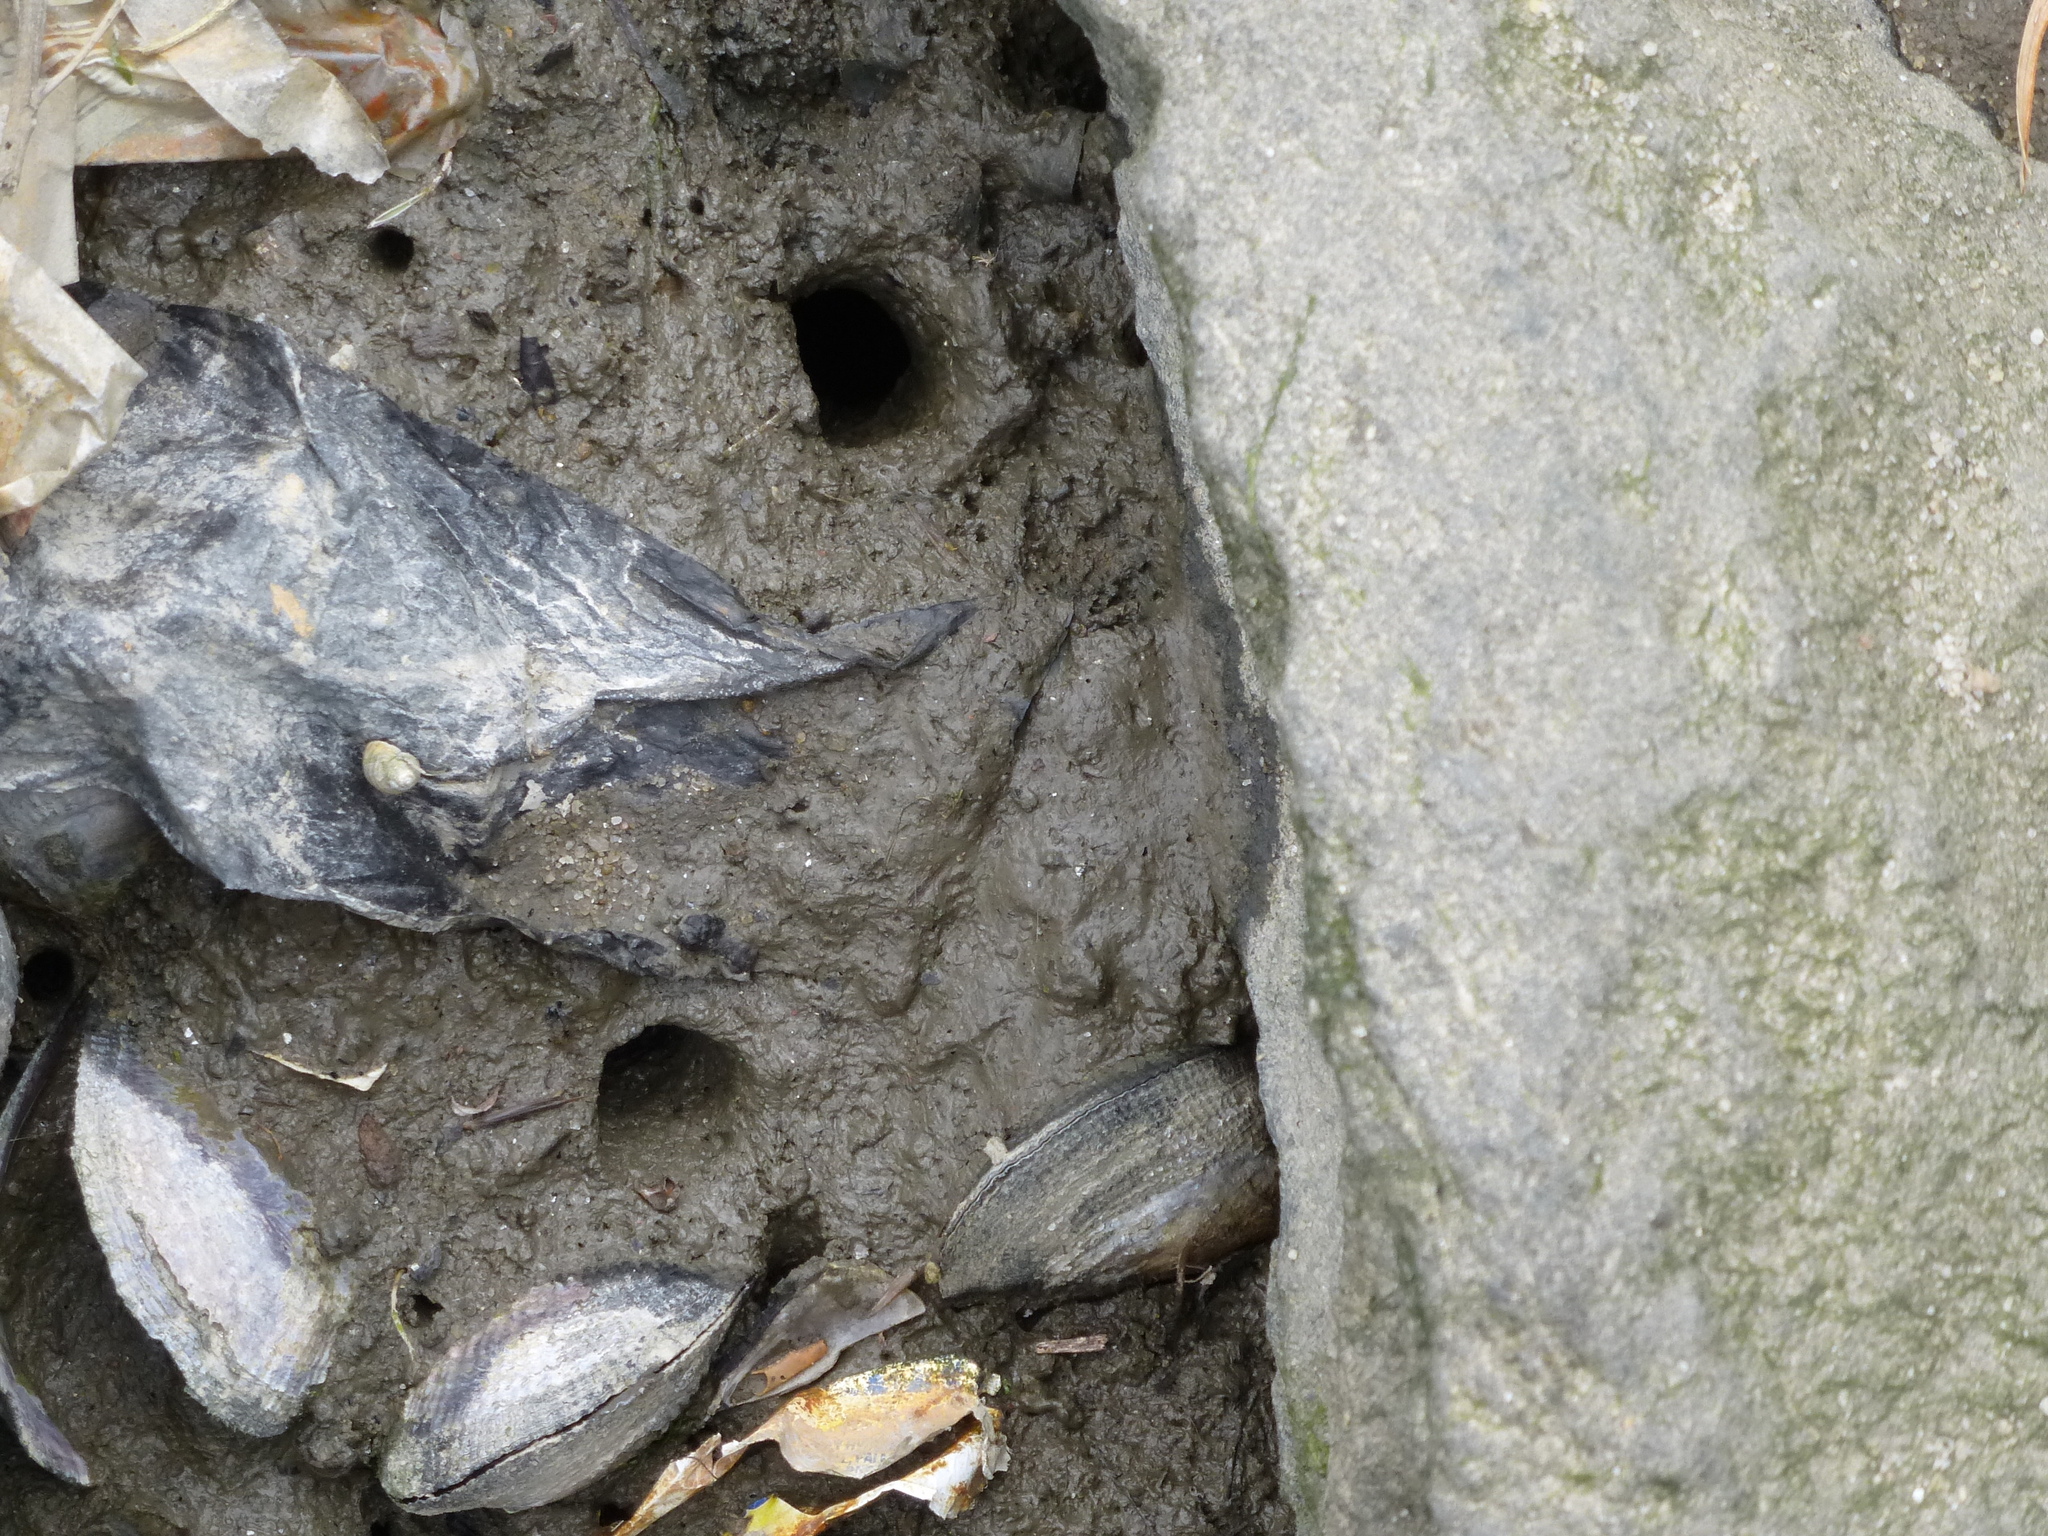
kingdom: Animalia
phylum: Mollusca
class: Bivalvia
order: Mytilida
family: Mytilidae
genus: Geukensia
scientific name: Geukensia demissa
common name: Ribbed mussel
